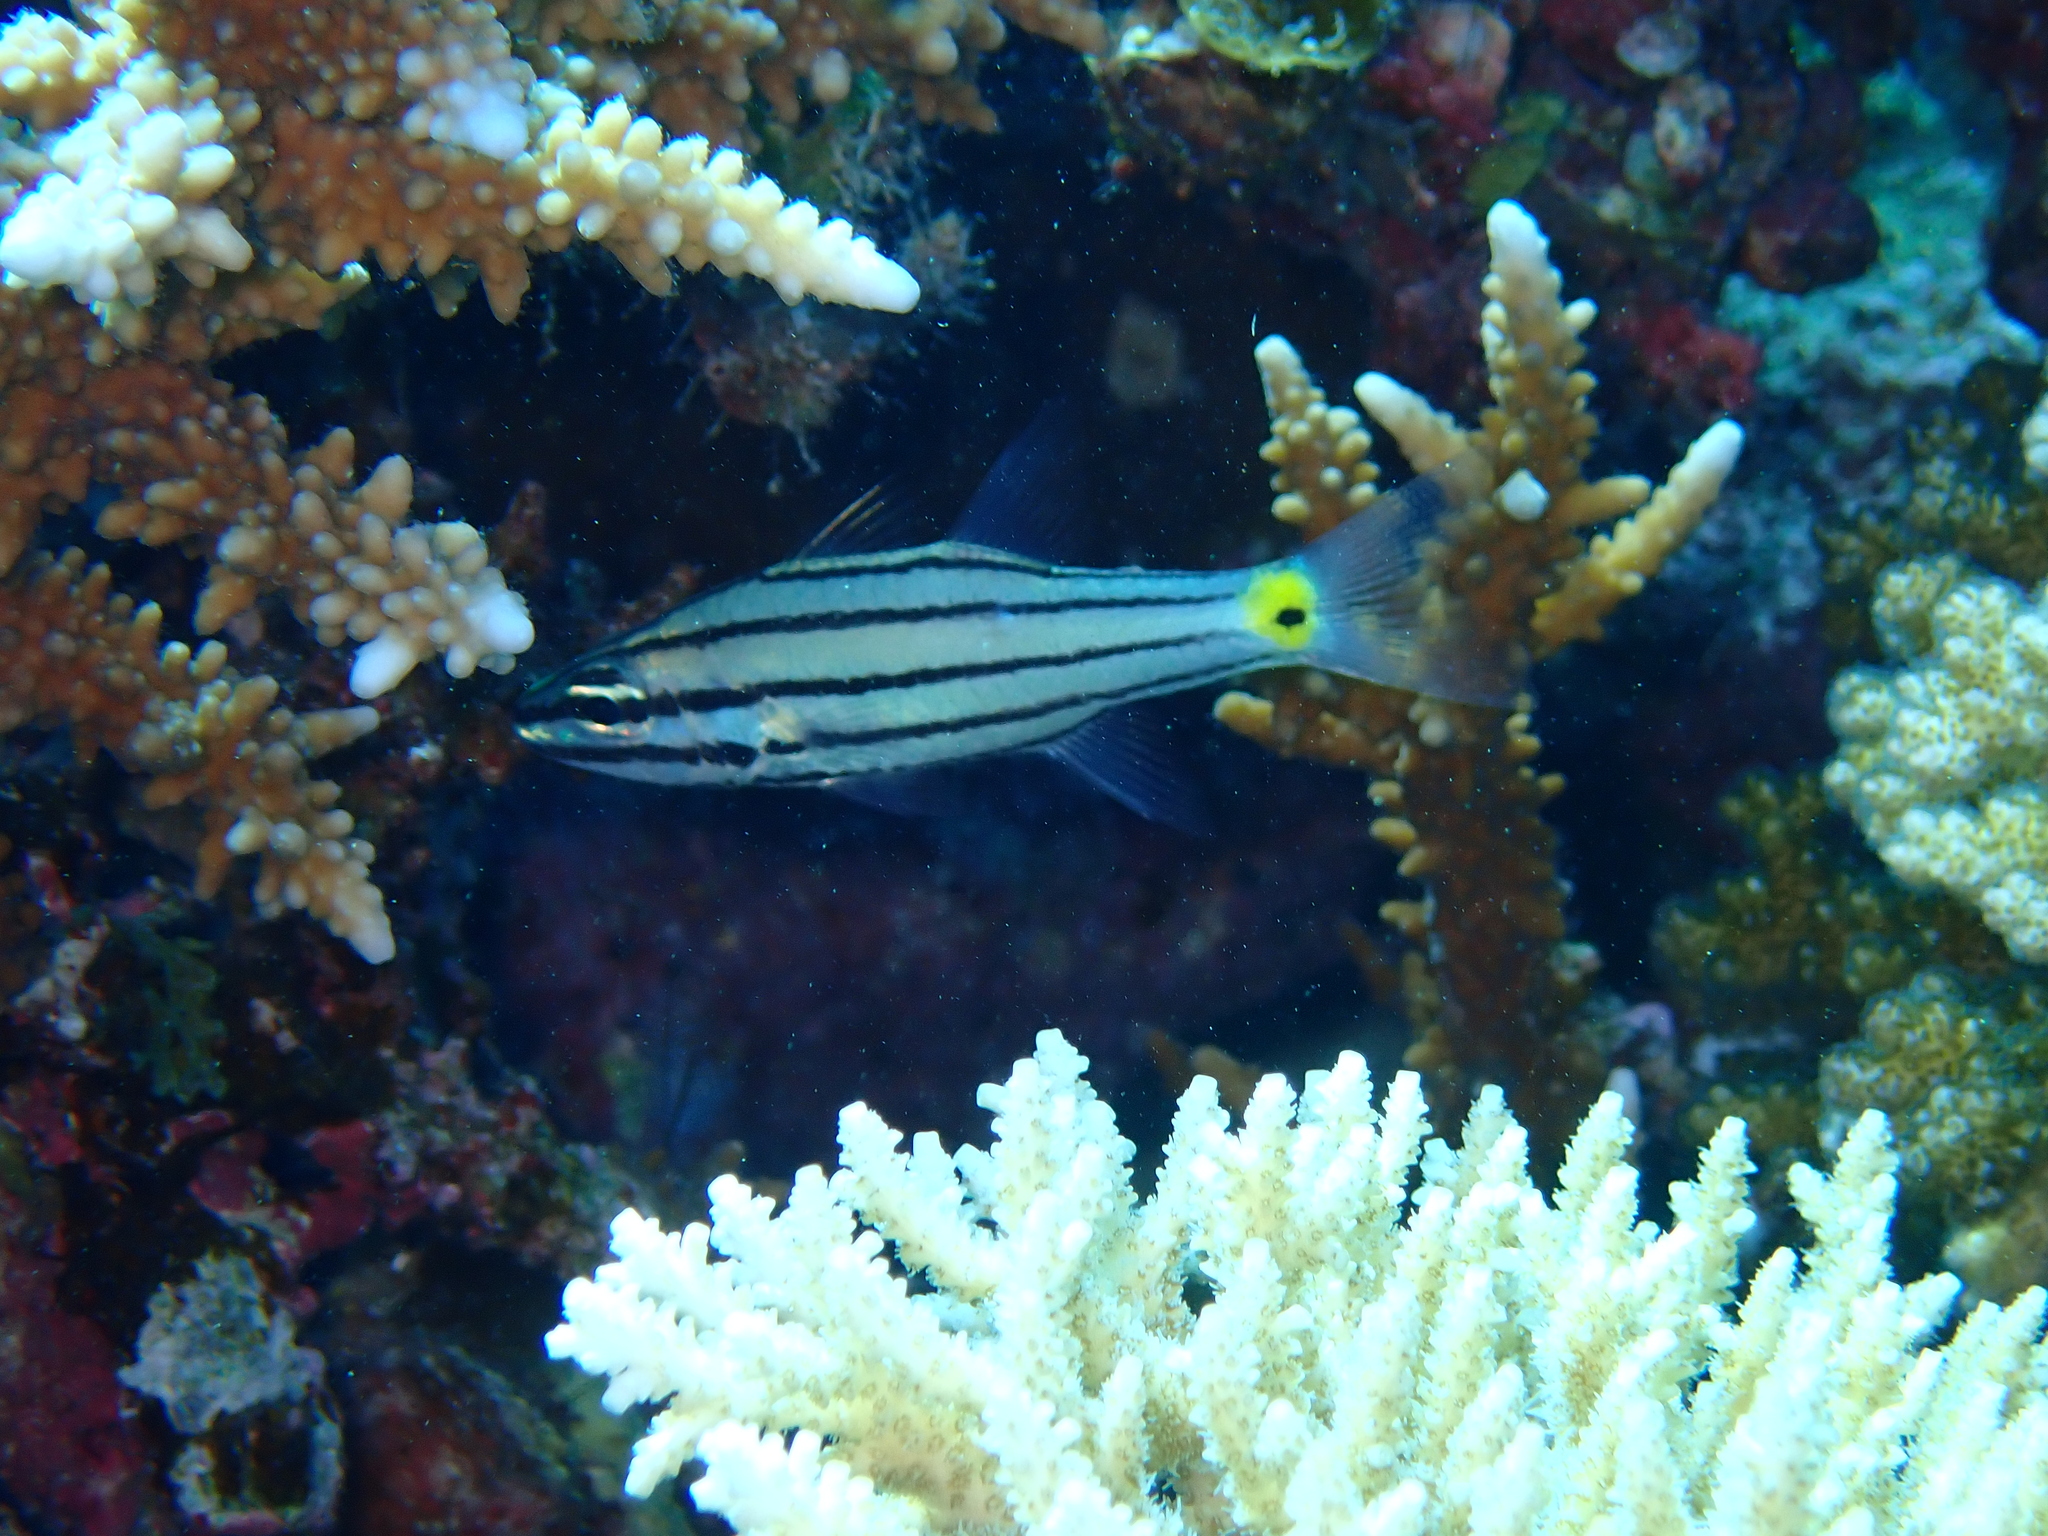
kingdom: Animalia
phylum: Chordata
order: Perciformes
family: Apogonidae
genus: Cheilodipterus
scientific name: Cheilodipterus quinquelineatus
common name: Five-lined cardinalfish
